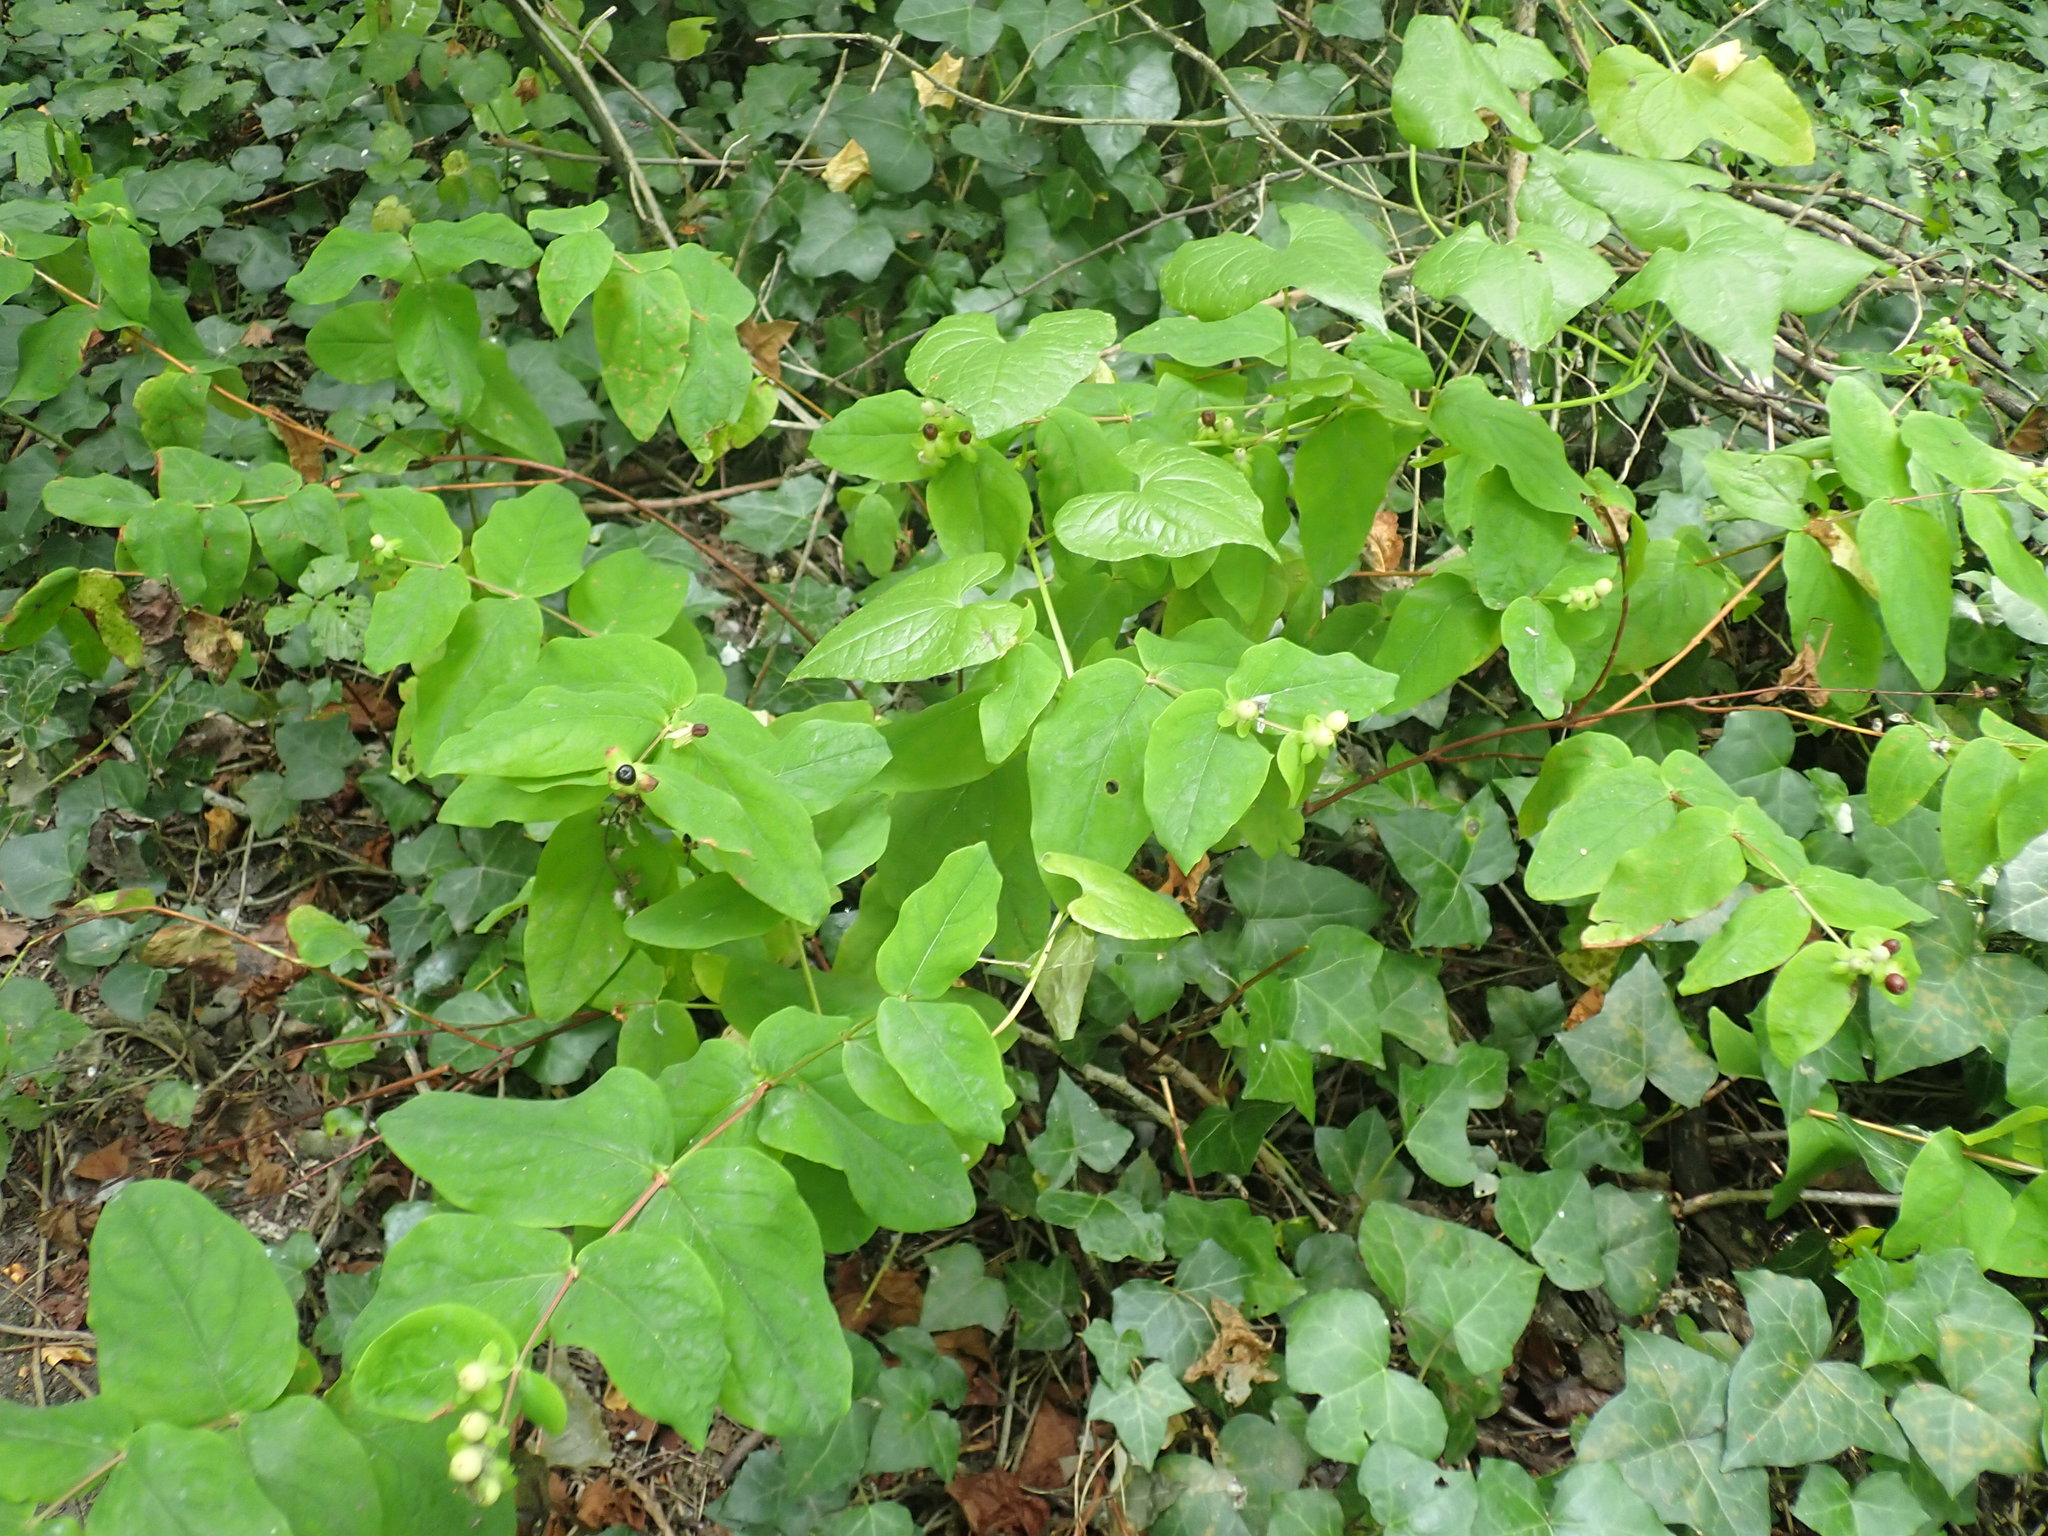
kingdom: Plantae
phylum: Tracheophyta
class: Liliopsida
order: Dioscoreales
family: Dioscoreaceae
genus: Dioscorea
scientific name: Dioscorea communis
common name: Black-bindweed
